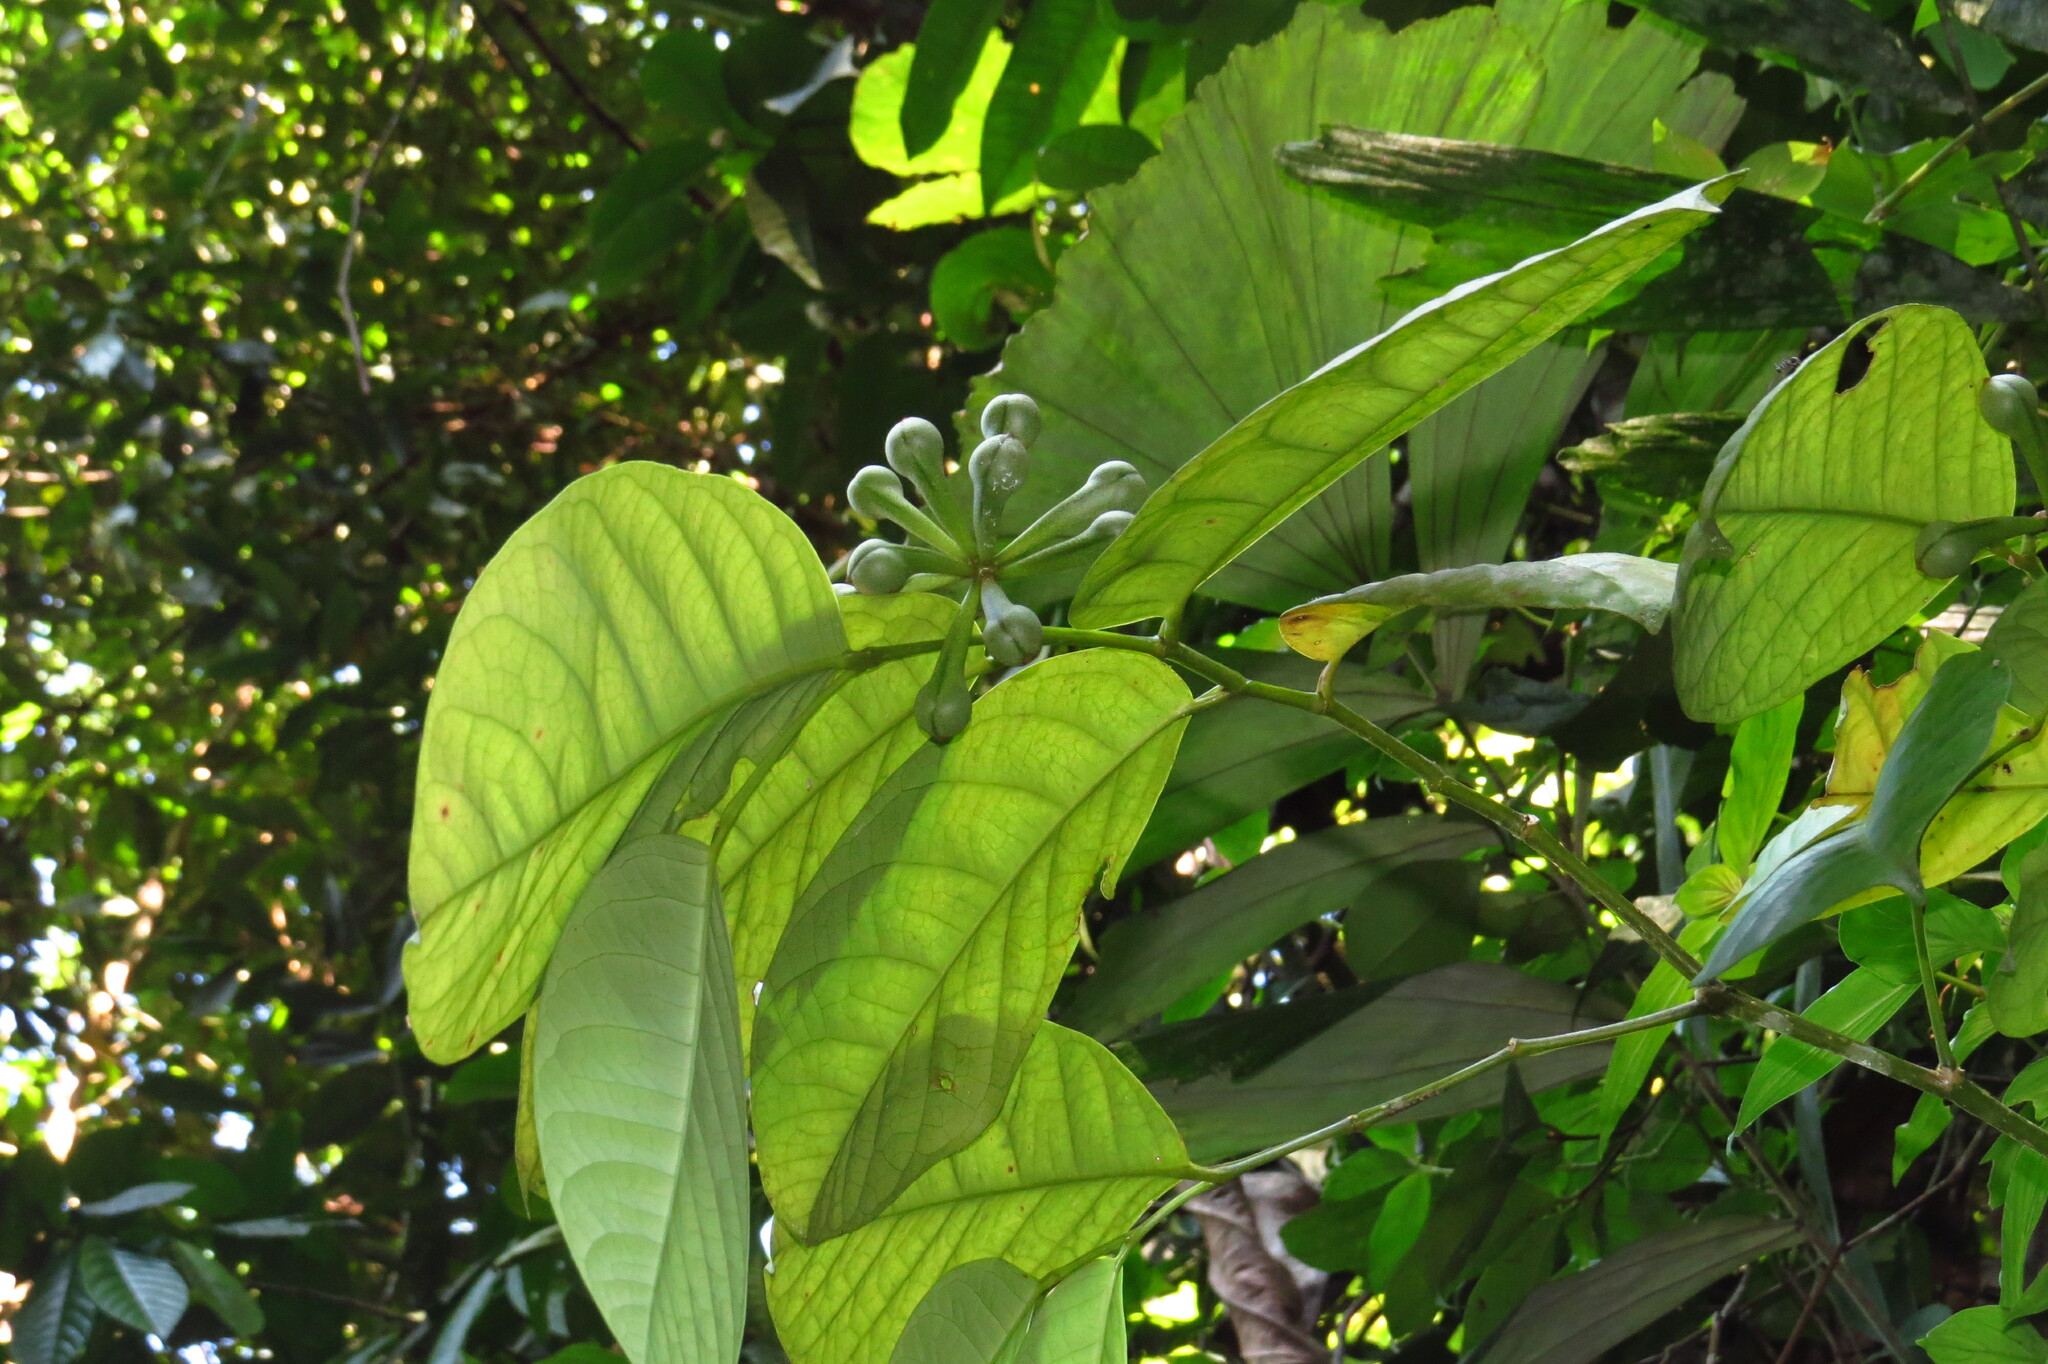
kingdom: Plantae
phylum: Tracheophyta
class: Magnoliopsida
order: Magnoliales
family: Annonaceae
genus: Anaxagorea
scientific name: Anaxagorea javanica
